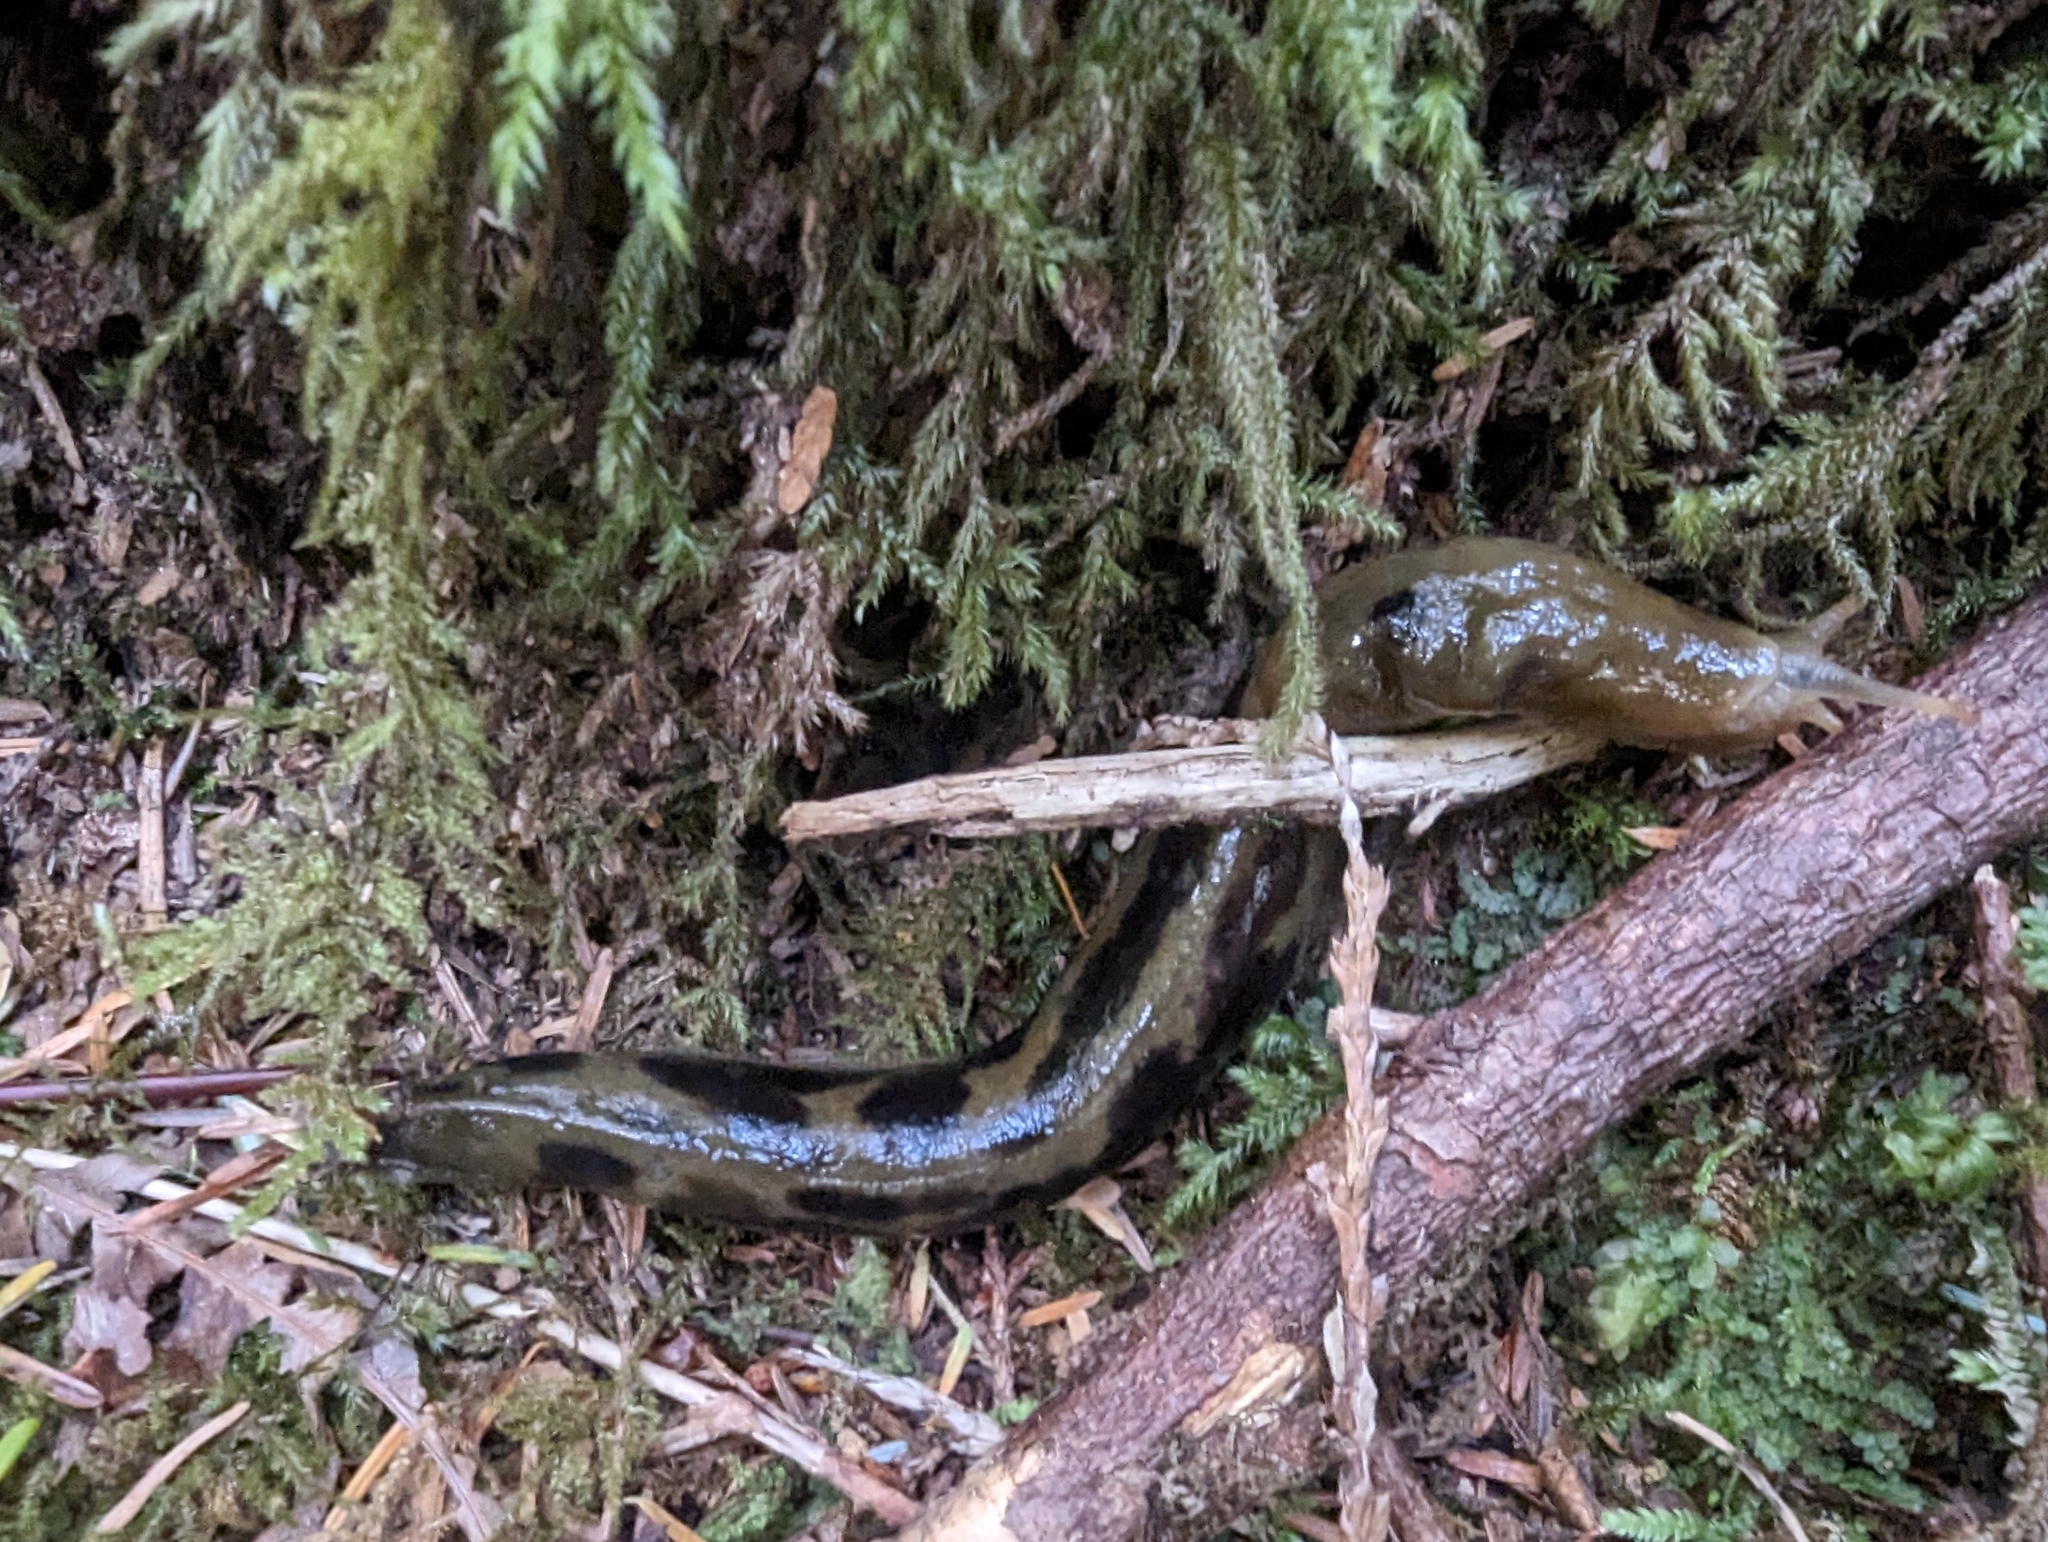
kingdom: Animalia
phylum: Mollusca
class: Gastropoda
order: Stylommatophora
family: Ariolimacidae
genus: Ariolimax
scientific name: Ariolimax columbianus
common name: Pacific banana slug
